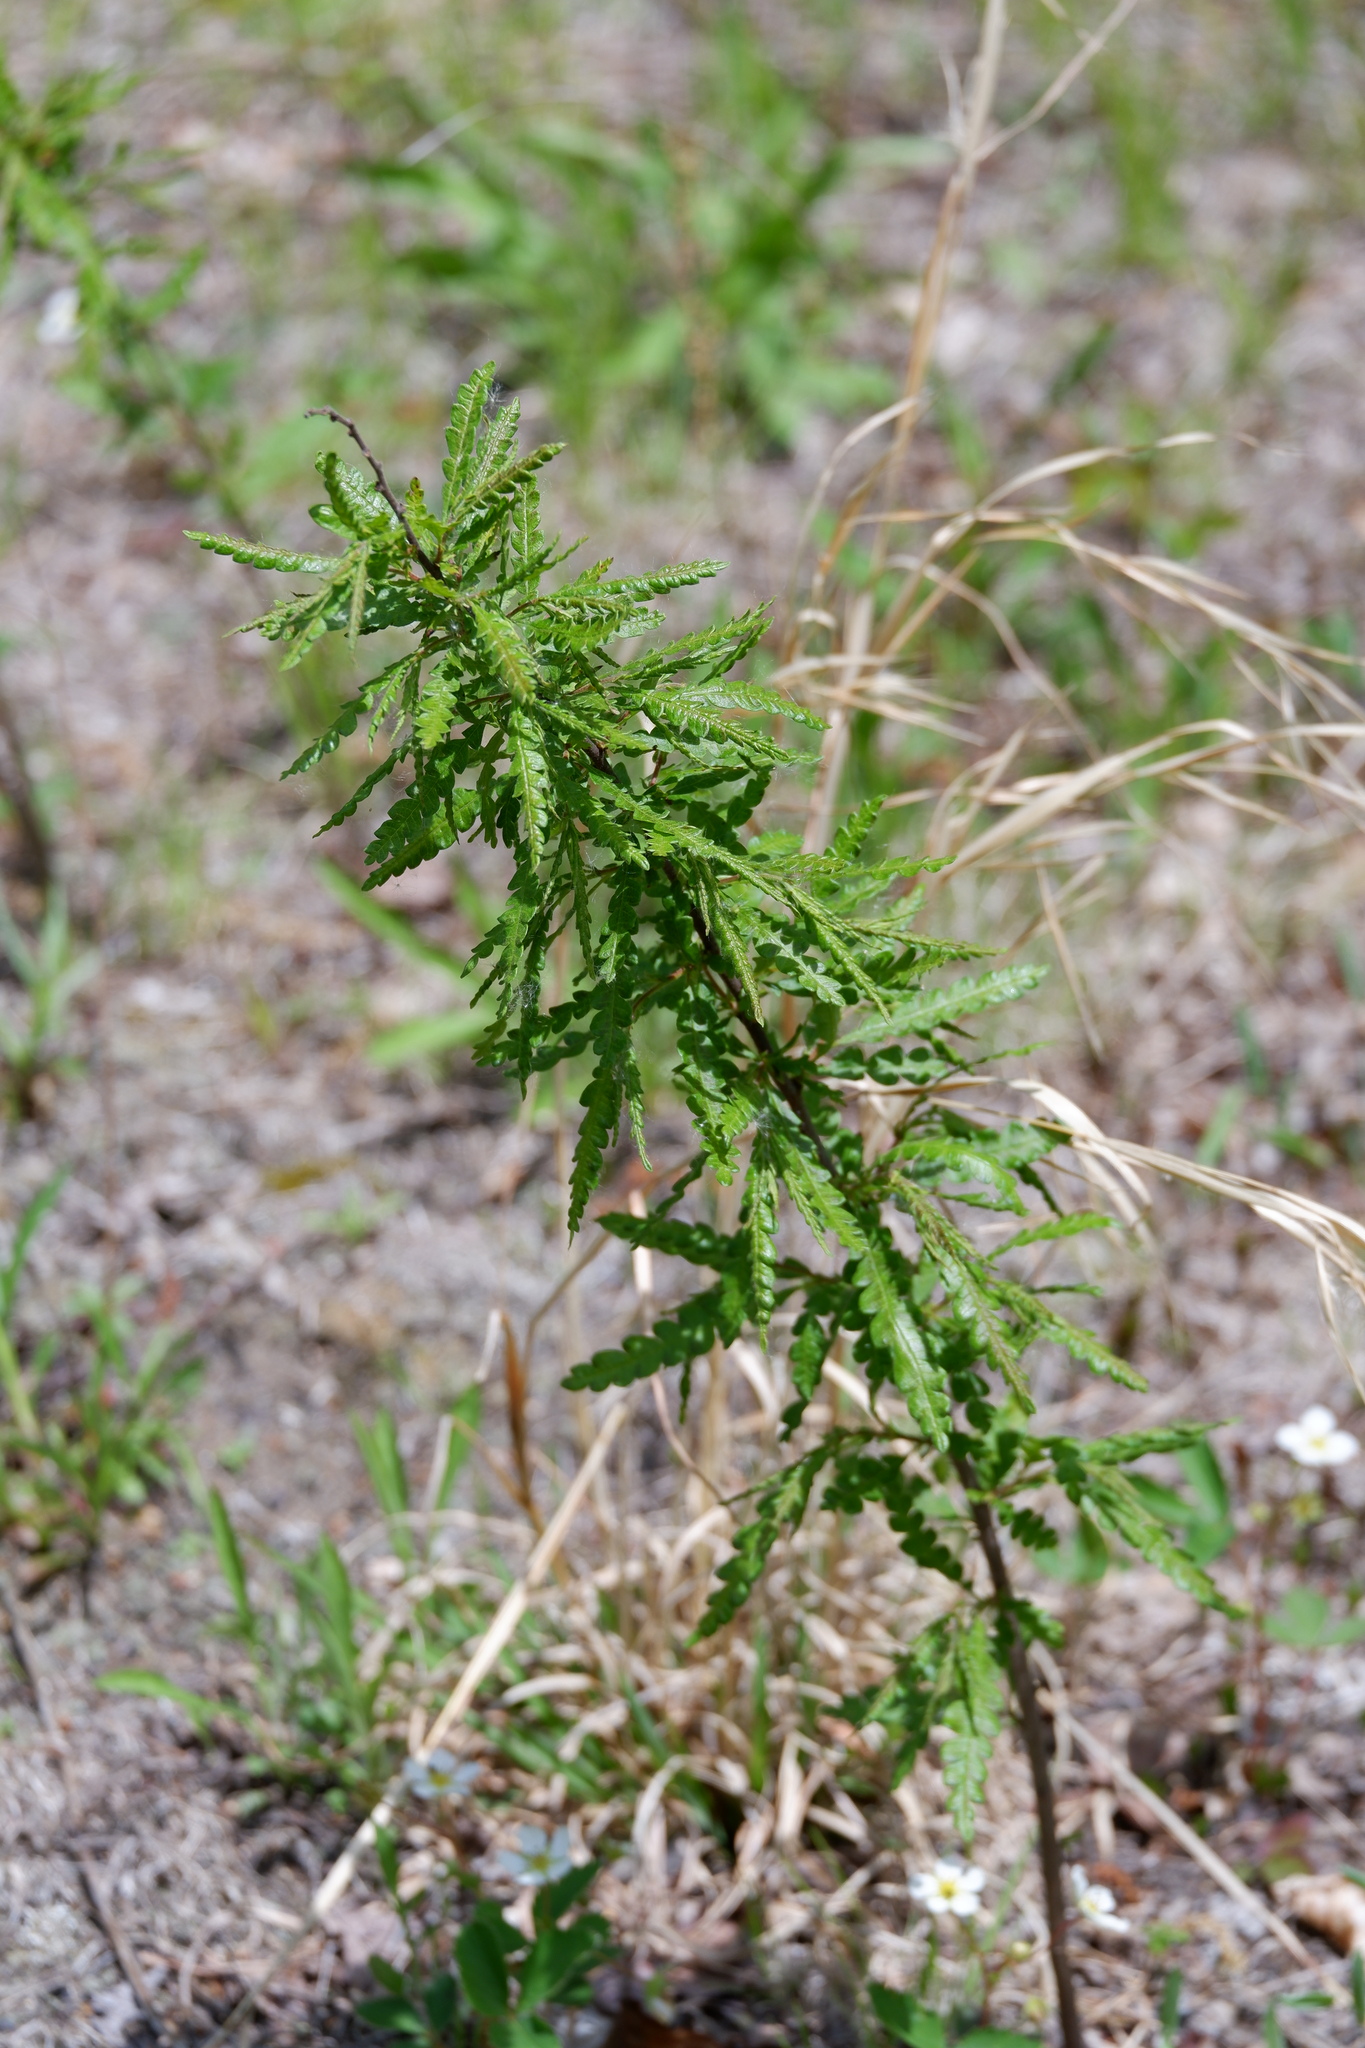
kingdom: Plantae
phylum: Tracheophyta
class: Magnoliopsida
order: Fagales
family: Myricaceae
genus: Comptonia
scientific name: Comptonia peregrina
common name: Sweet-fern
